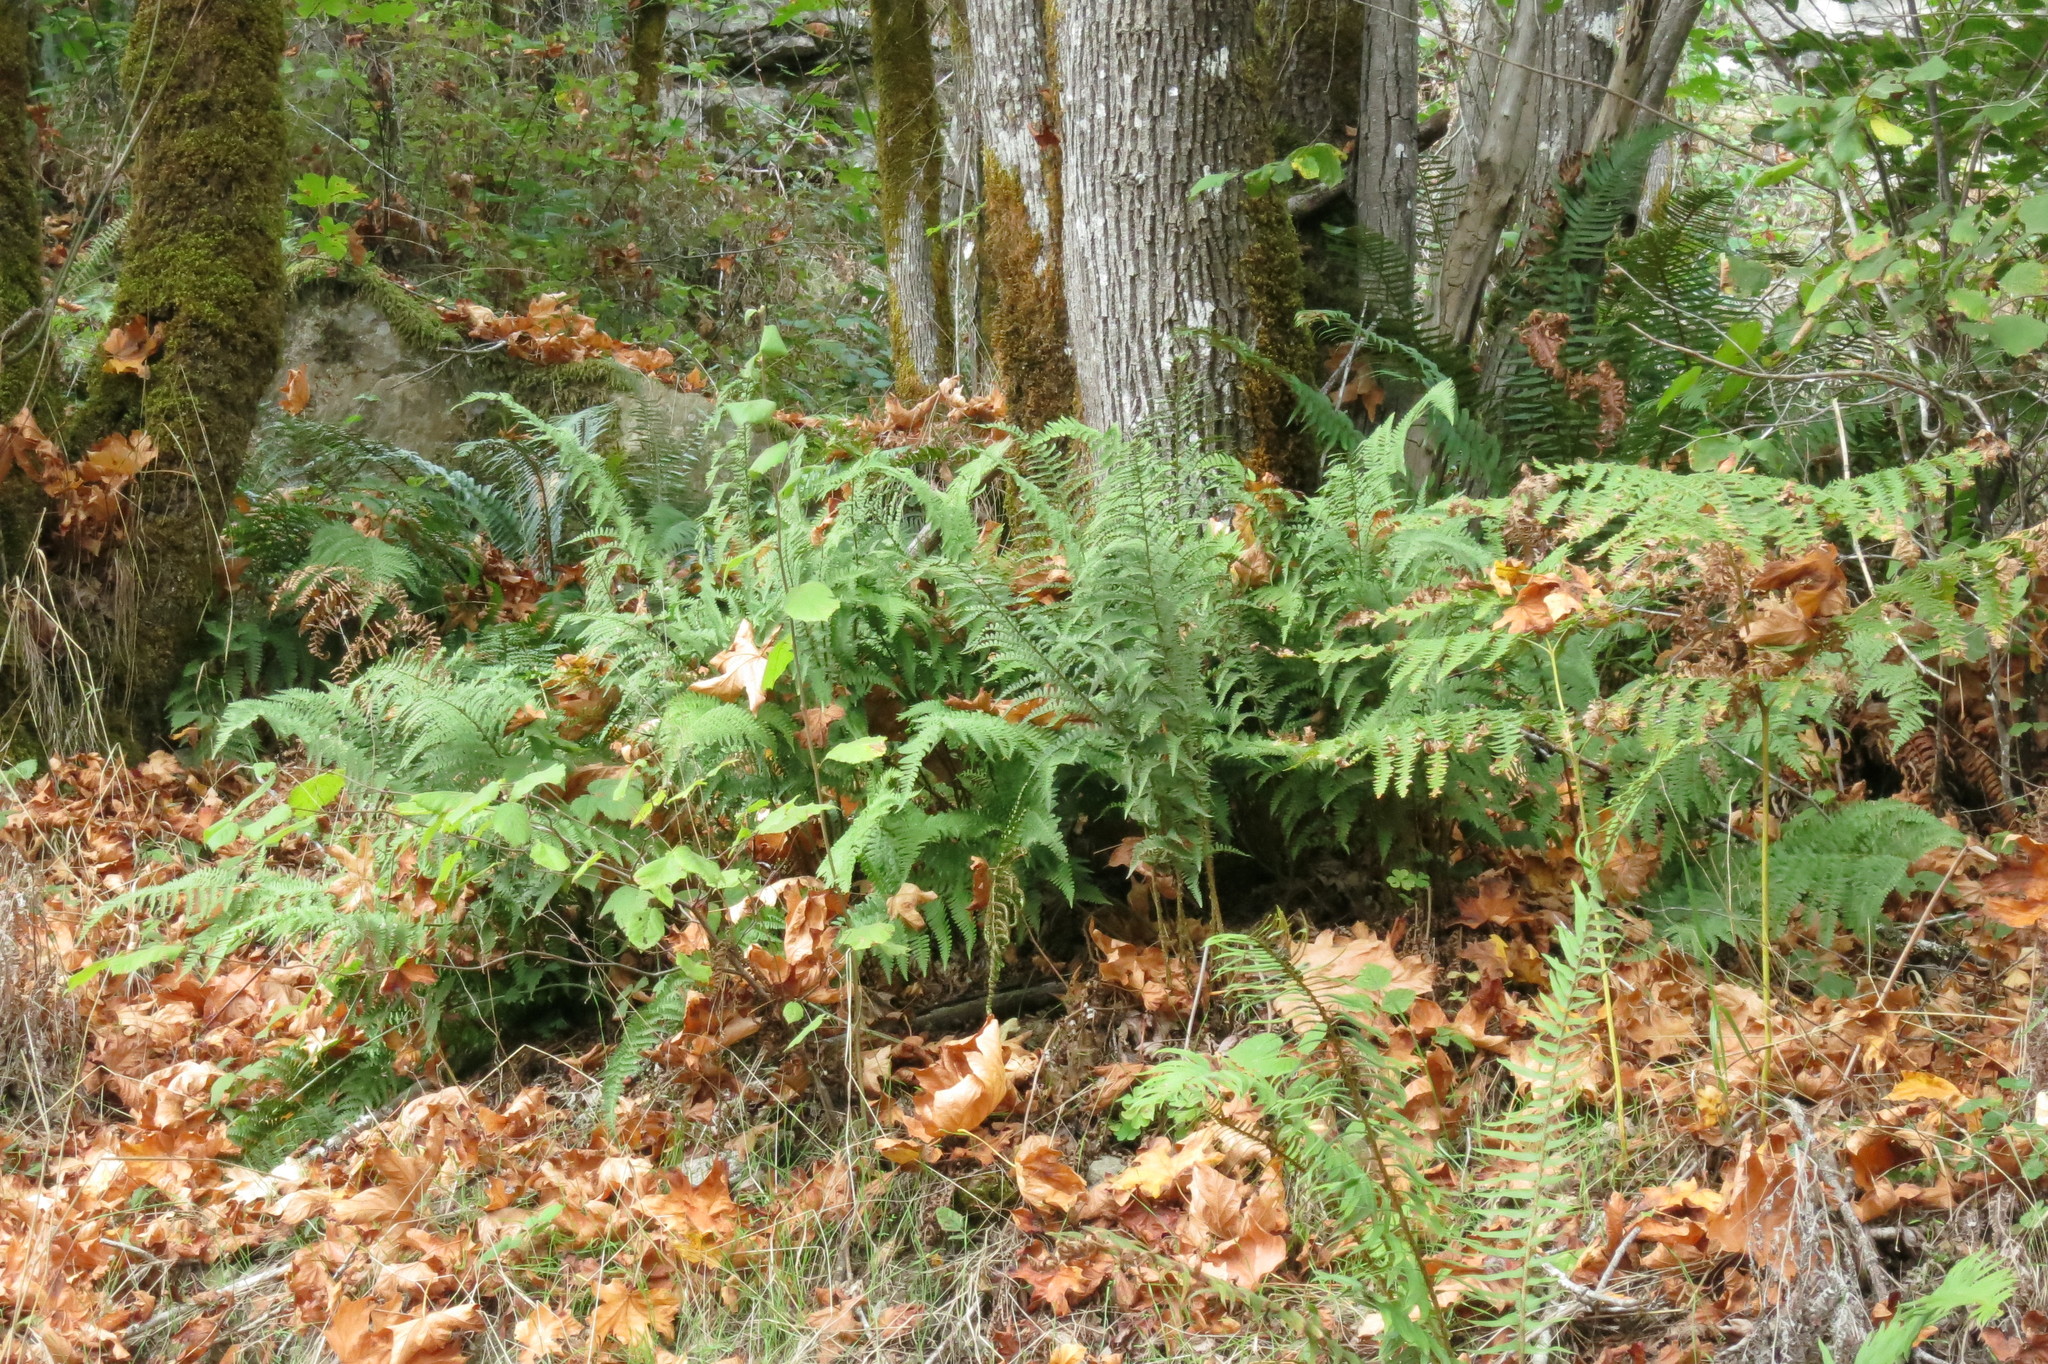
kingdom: Plantae
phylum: Tracheophyta
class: Polypodiopsida
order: Polypodiales
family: Dryopteridaceae
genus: Dryopteris
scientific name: Dryopteris arguta
